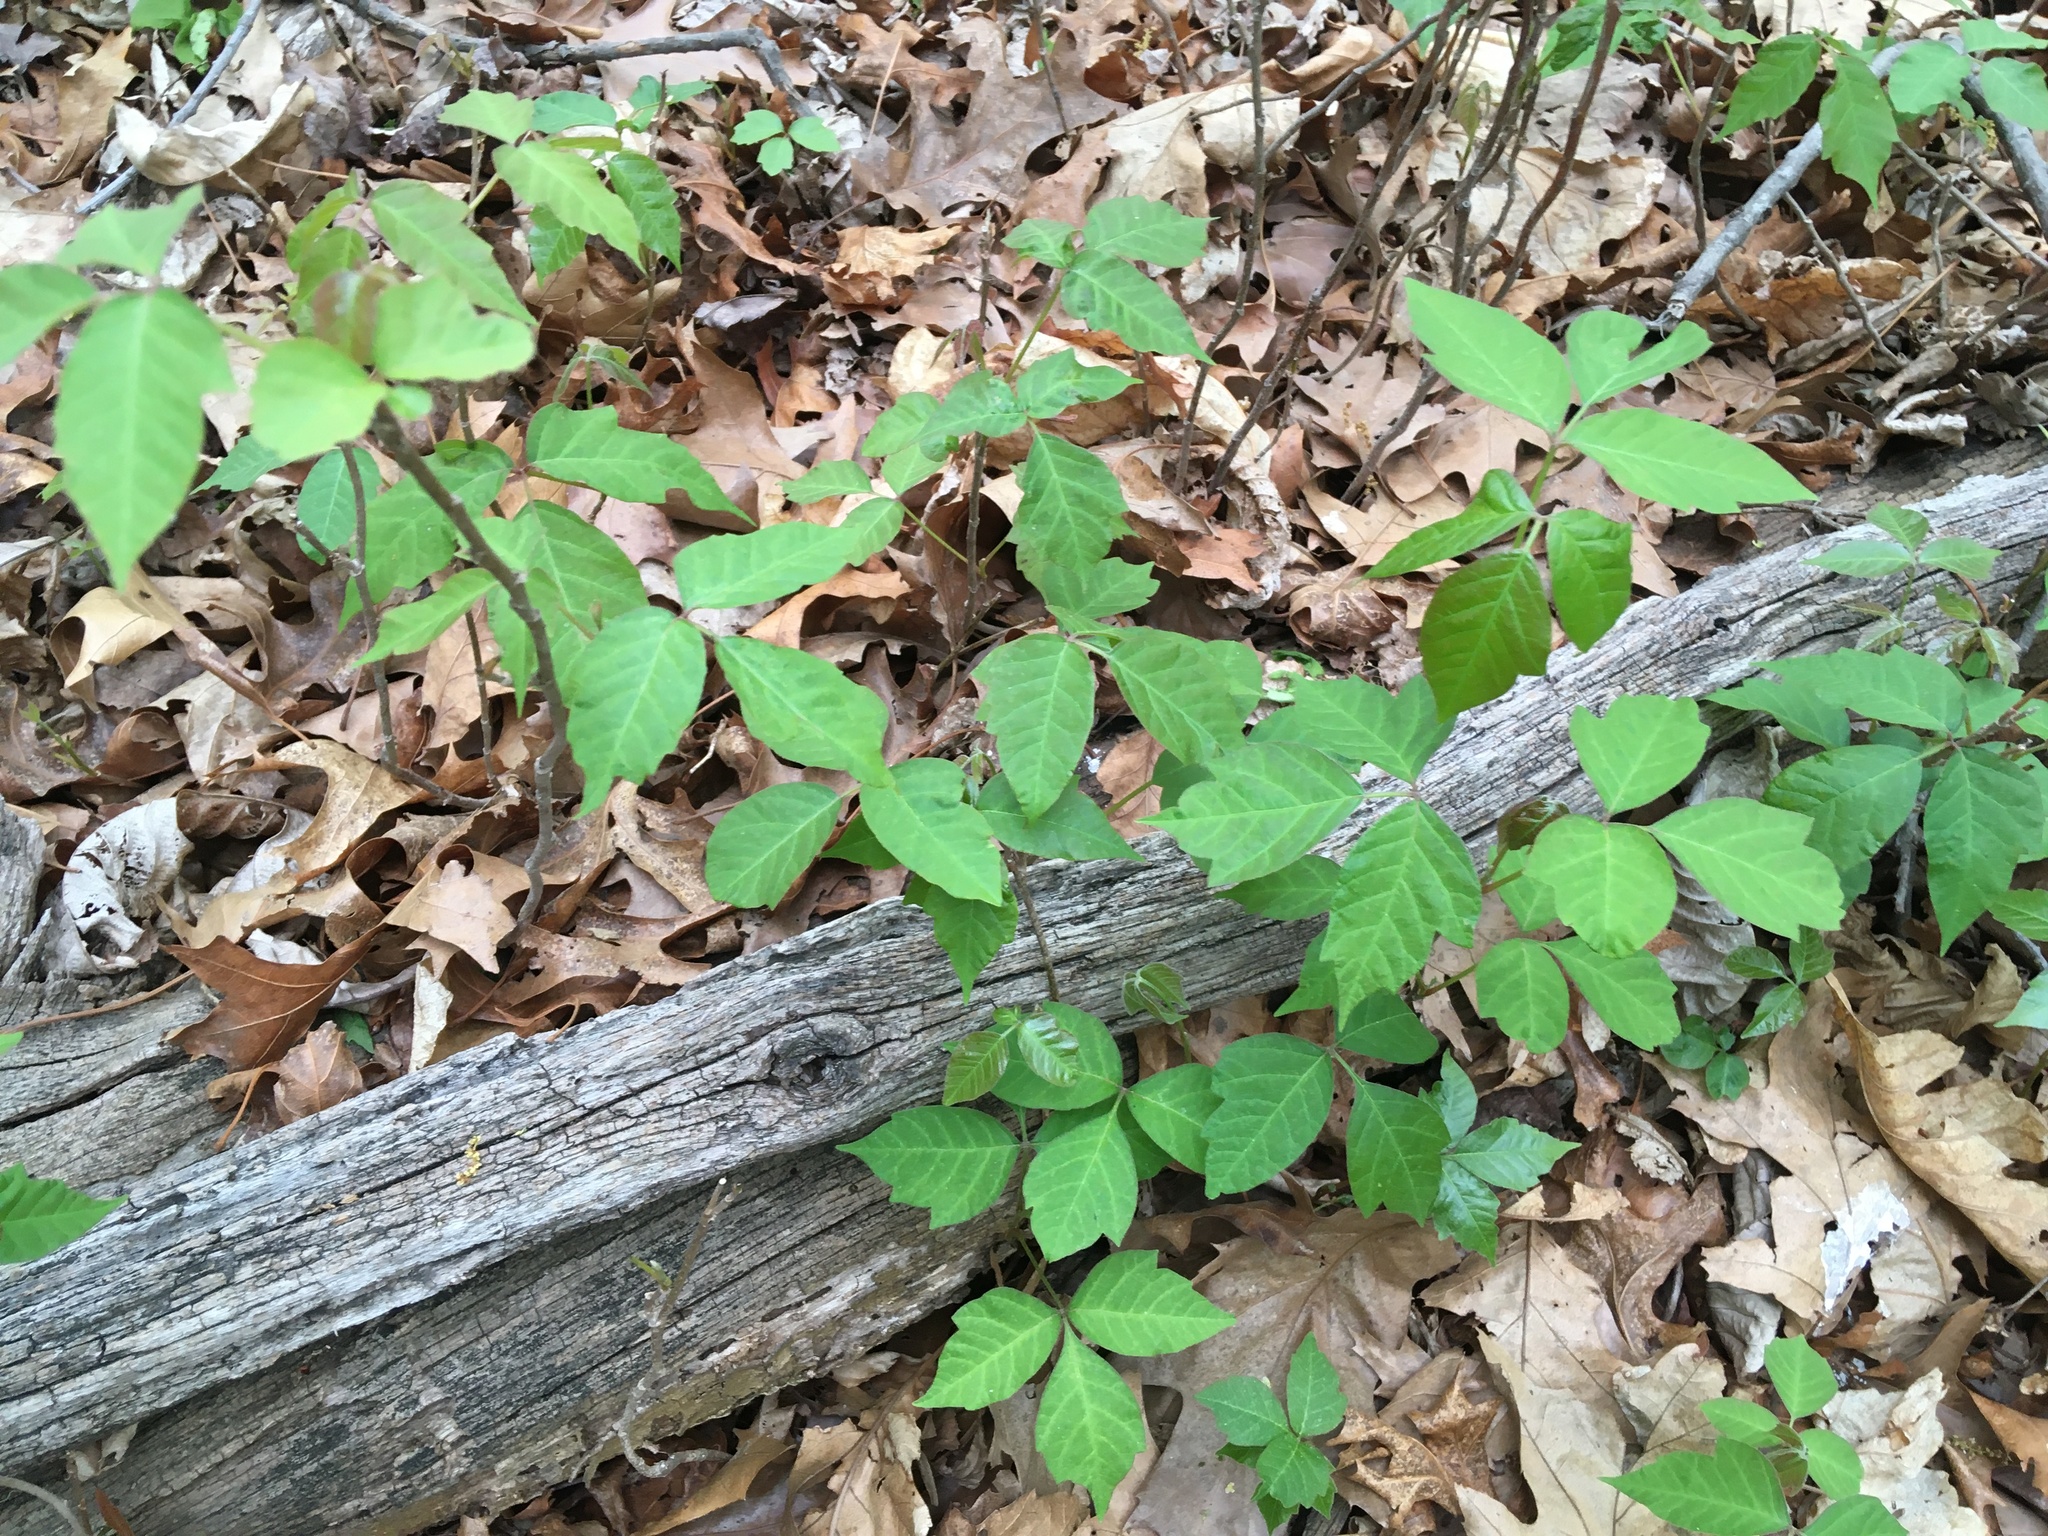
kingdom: Plantae
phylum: Tracheophyta
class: Magnoliopsida
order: Sapindales
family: Anacardiaceae
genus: Toxicodendron
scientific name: Toxicodendron radicans
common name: Poison ivy
